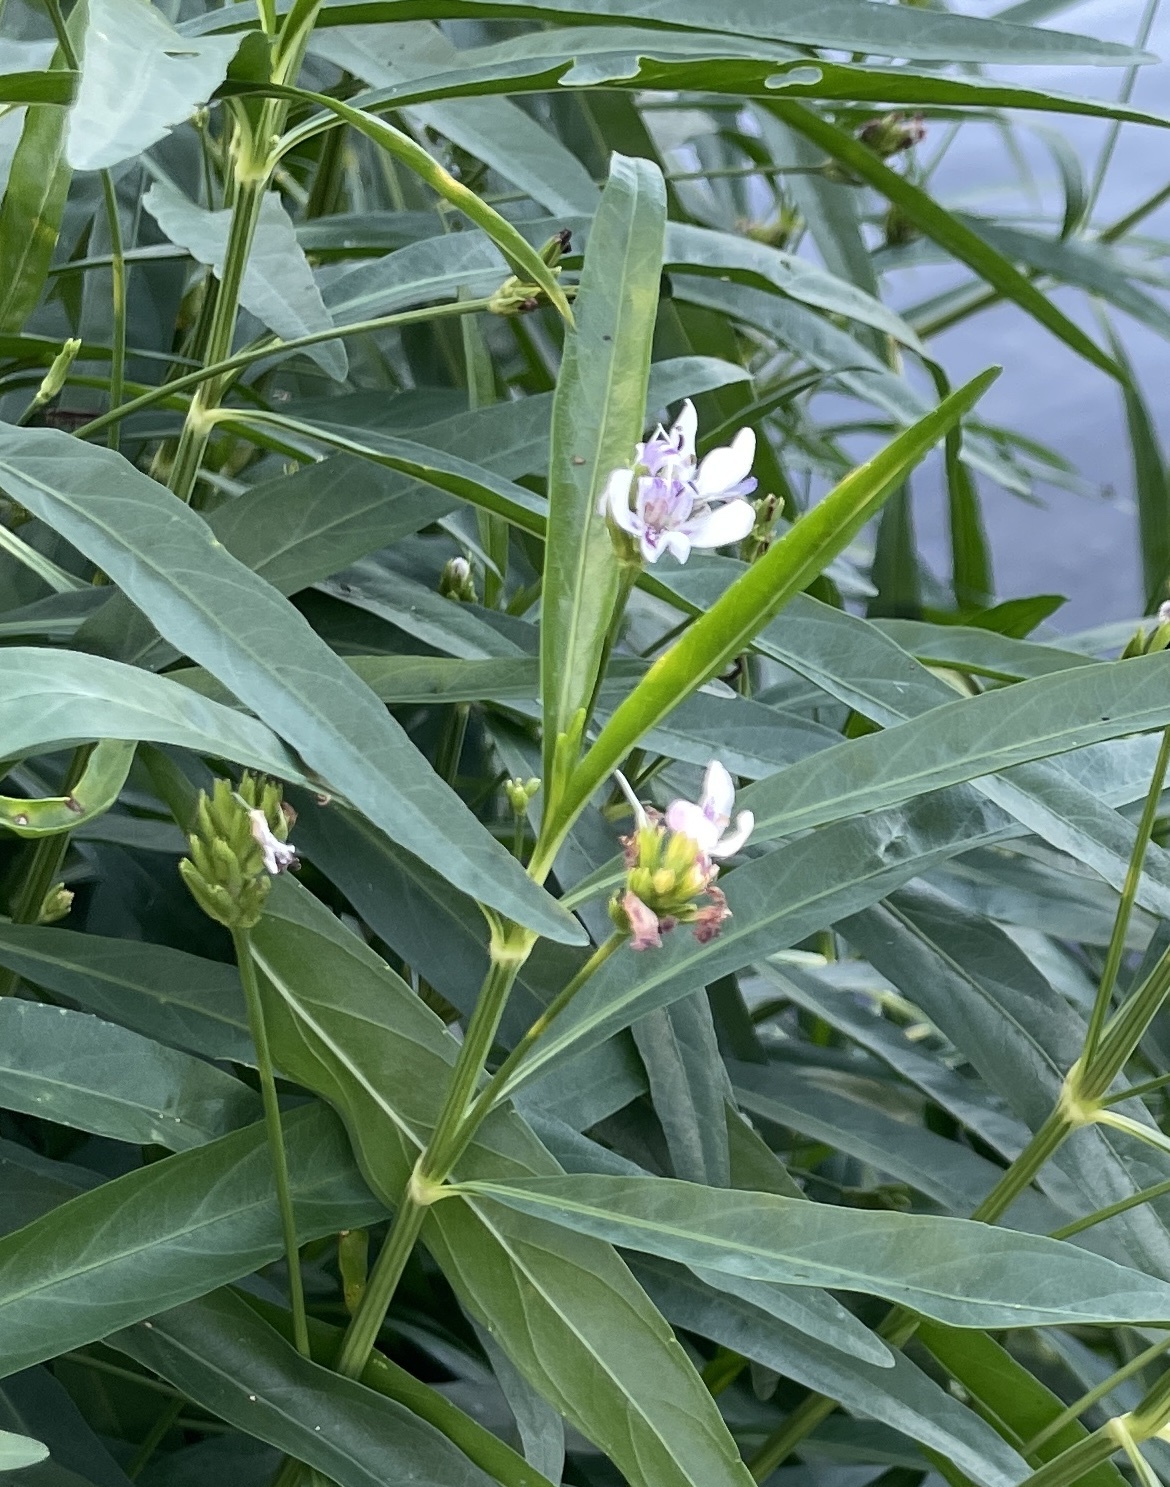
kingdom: Plantae
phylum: Tracheophyta
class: Magnoliopsida
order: Lamiales
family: Acanthaceae
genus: Dianthera
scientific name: Dianthera americana
